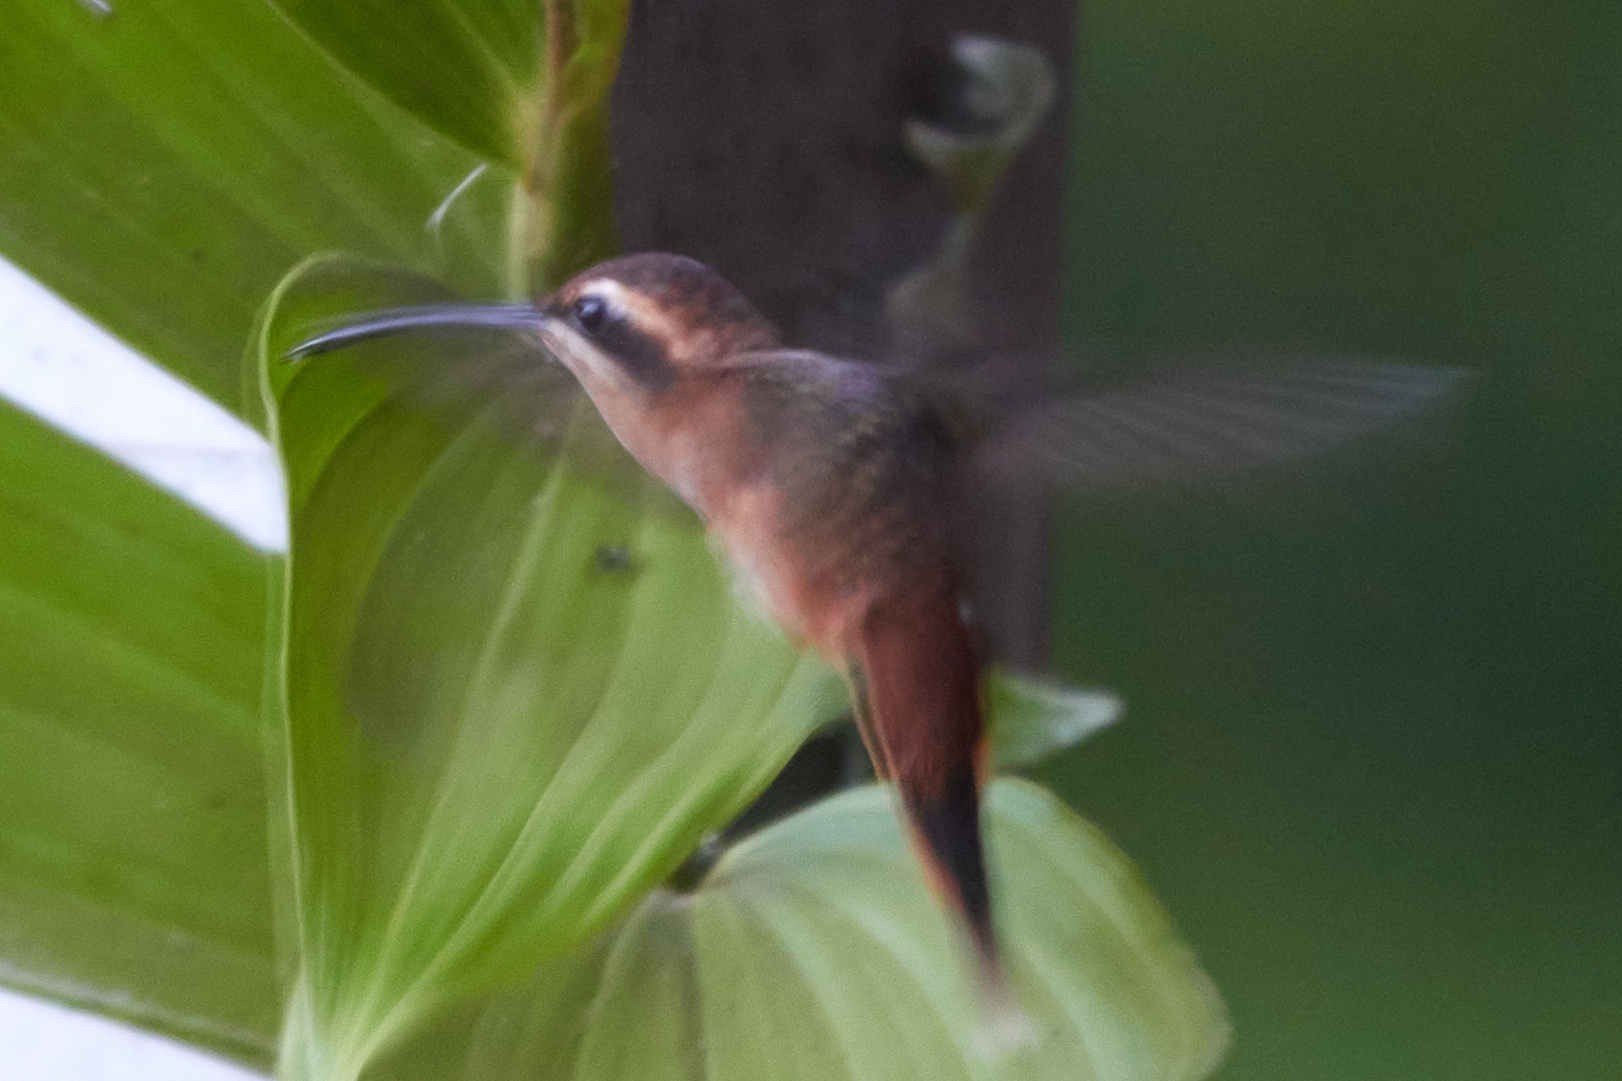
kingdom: Animalia
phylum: Chordata
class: Aves
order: Apodiformes
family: Trochilidae
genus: Phaethornis
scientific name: Phaethornis striigularis
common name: Stripe-throated hermit
